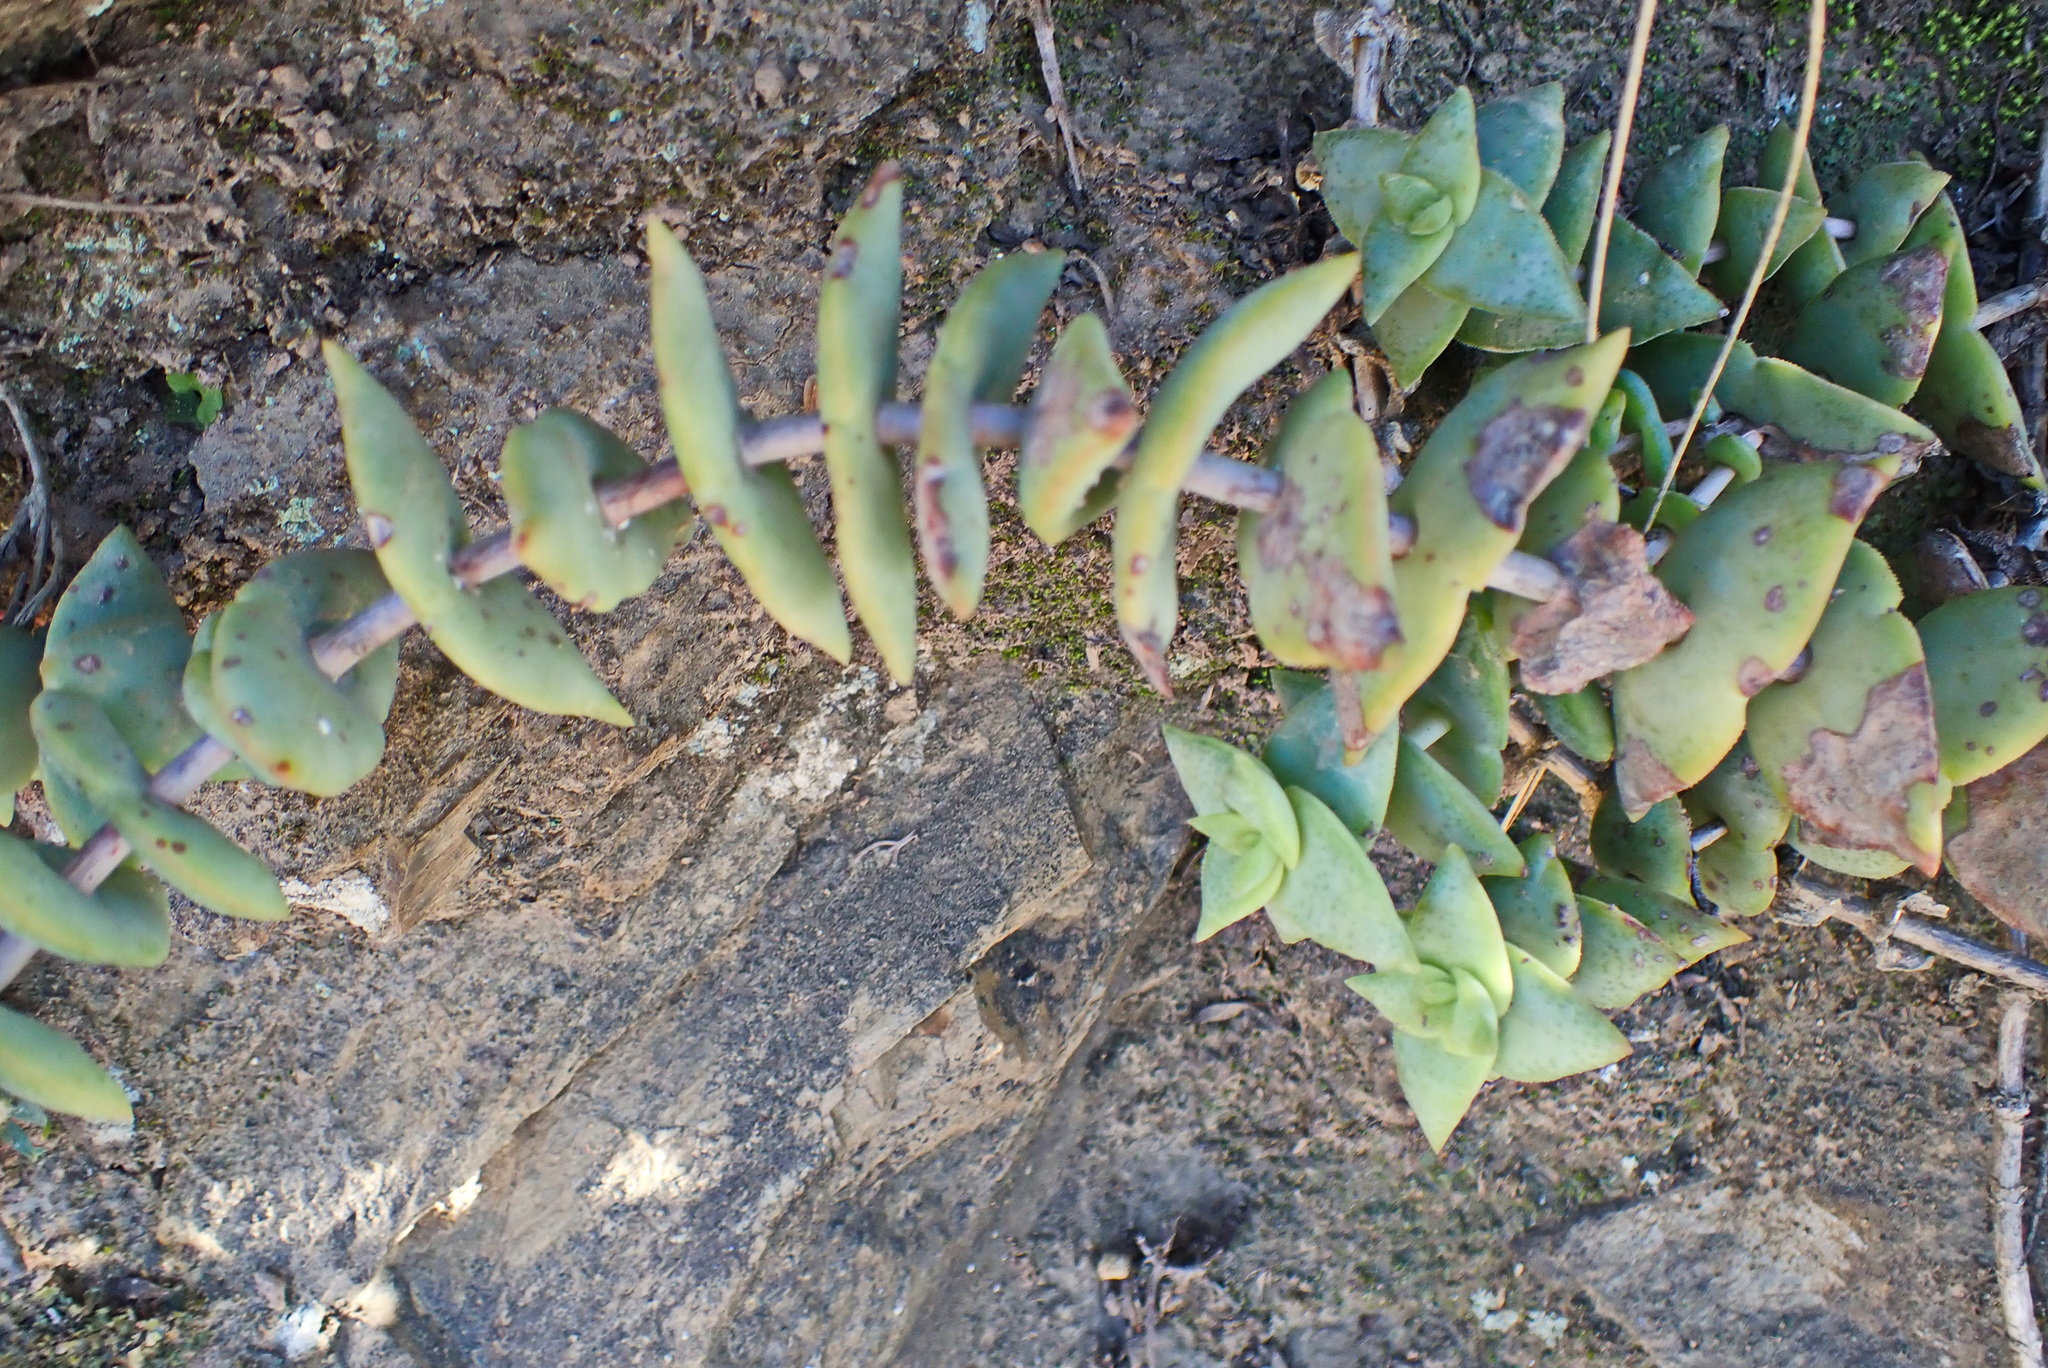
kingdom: Plantae
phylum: Tracheophyta
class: Magnoliopsida
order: Saxifragales
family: Crassulaceae
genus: Crassula
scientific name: Crassula perforata
